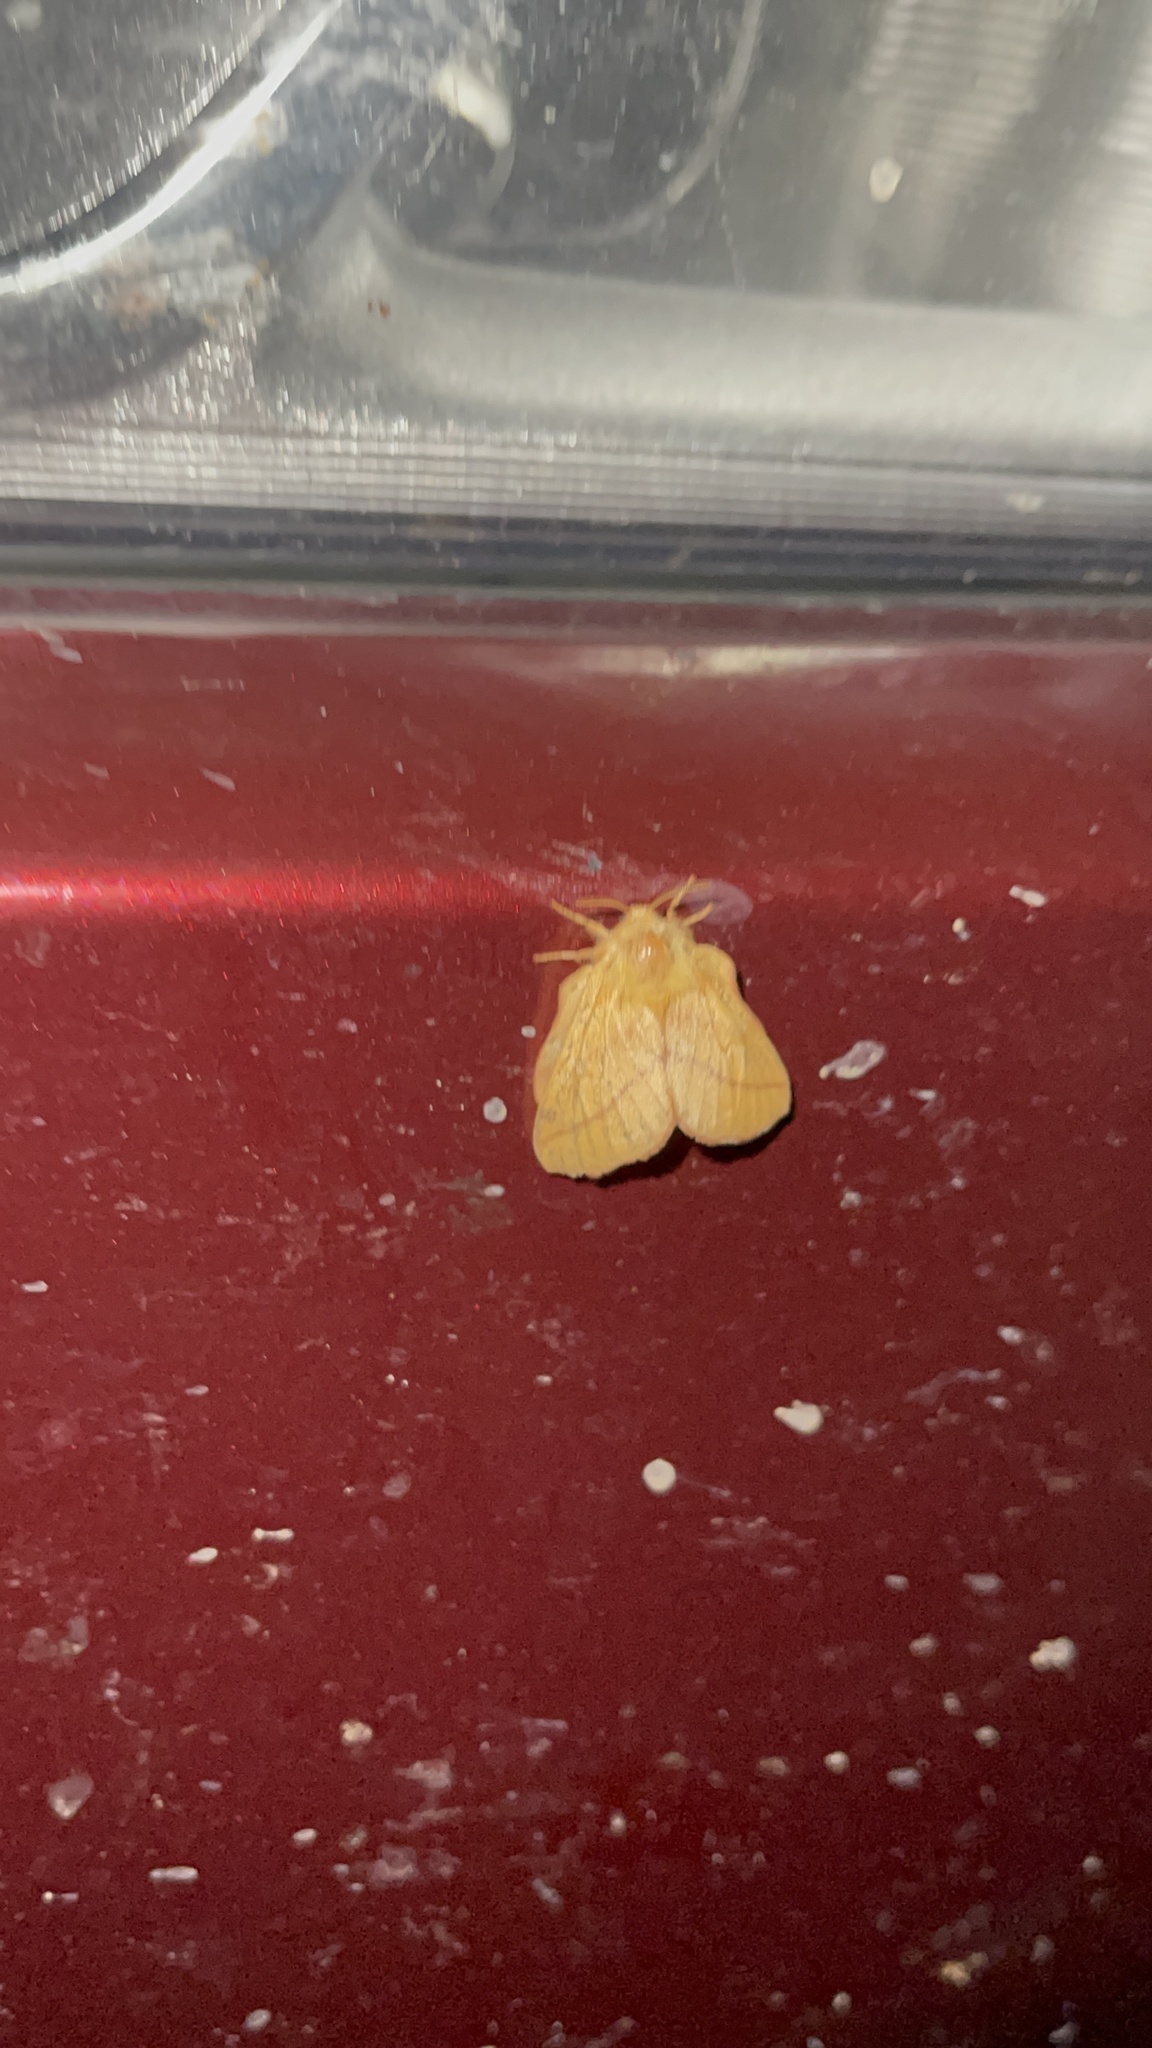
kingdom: Animalia
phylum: Arthropoda
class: Insecta
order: Lepidoptera
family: Lasiocampidae
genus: Malacosoma
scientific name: Malacosoma disstria
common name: Forest tent caterpillar
